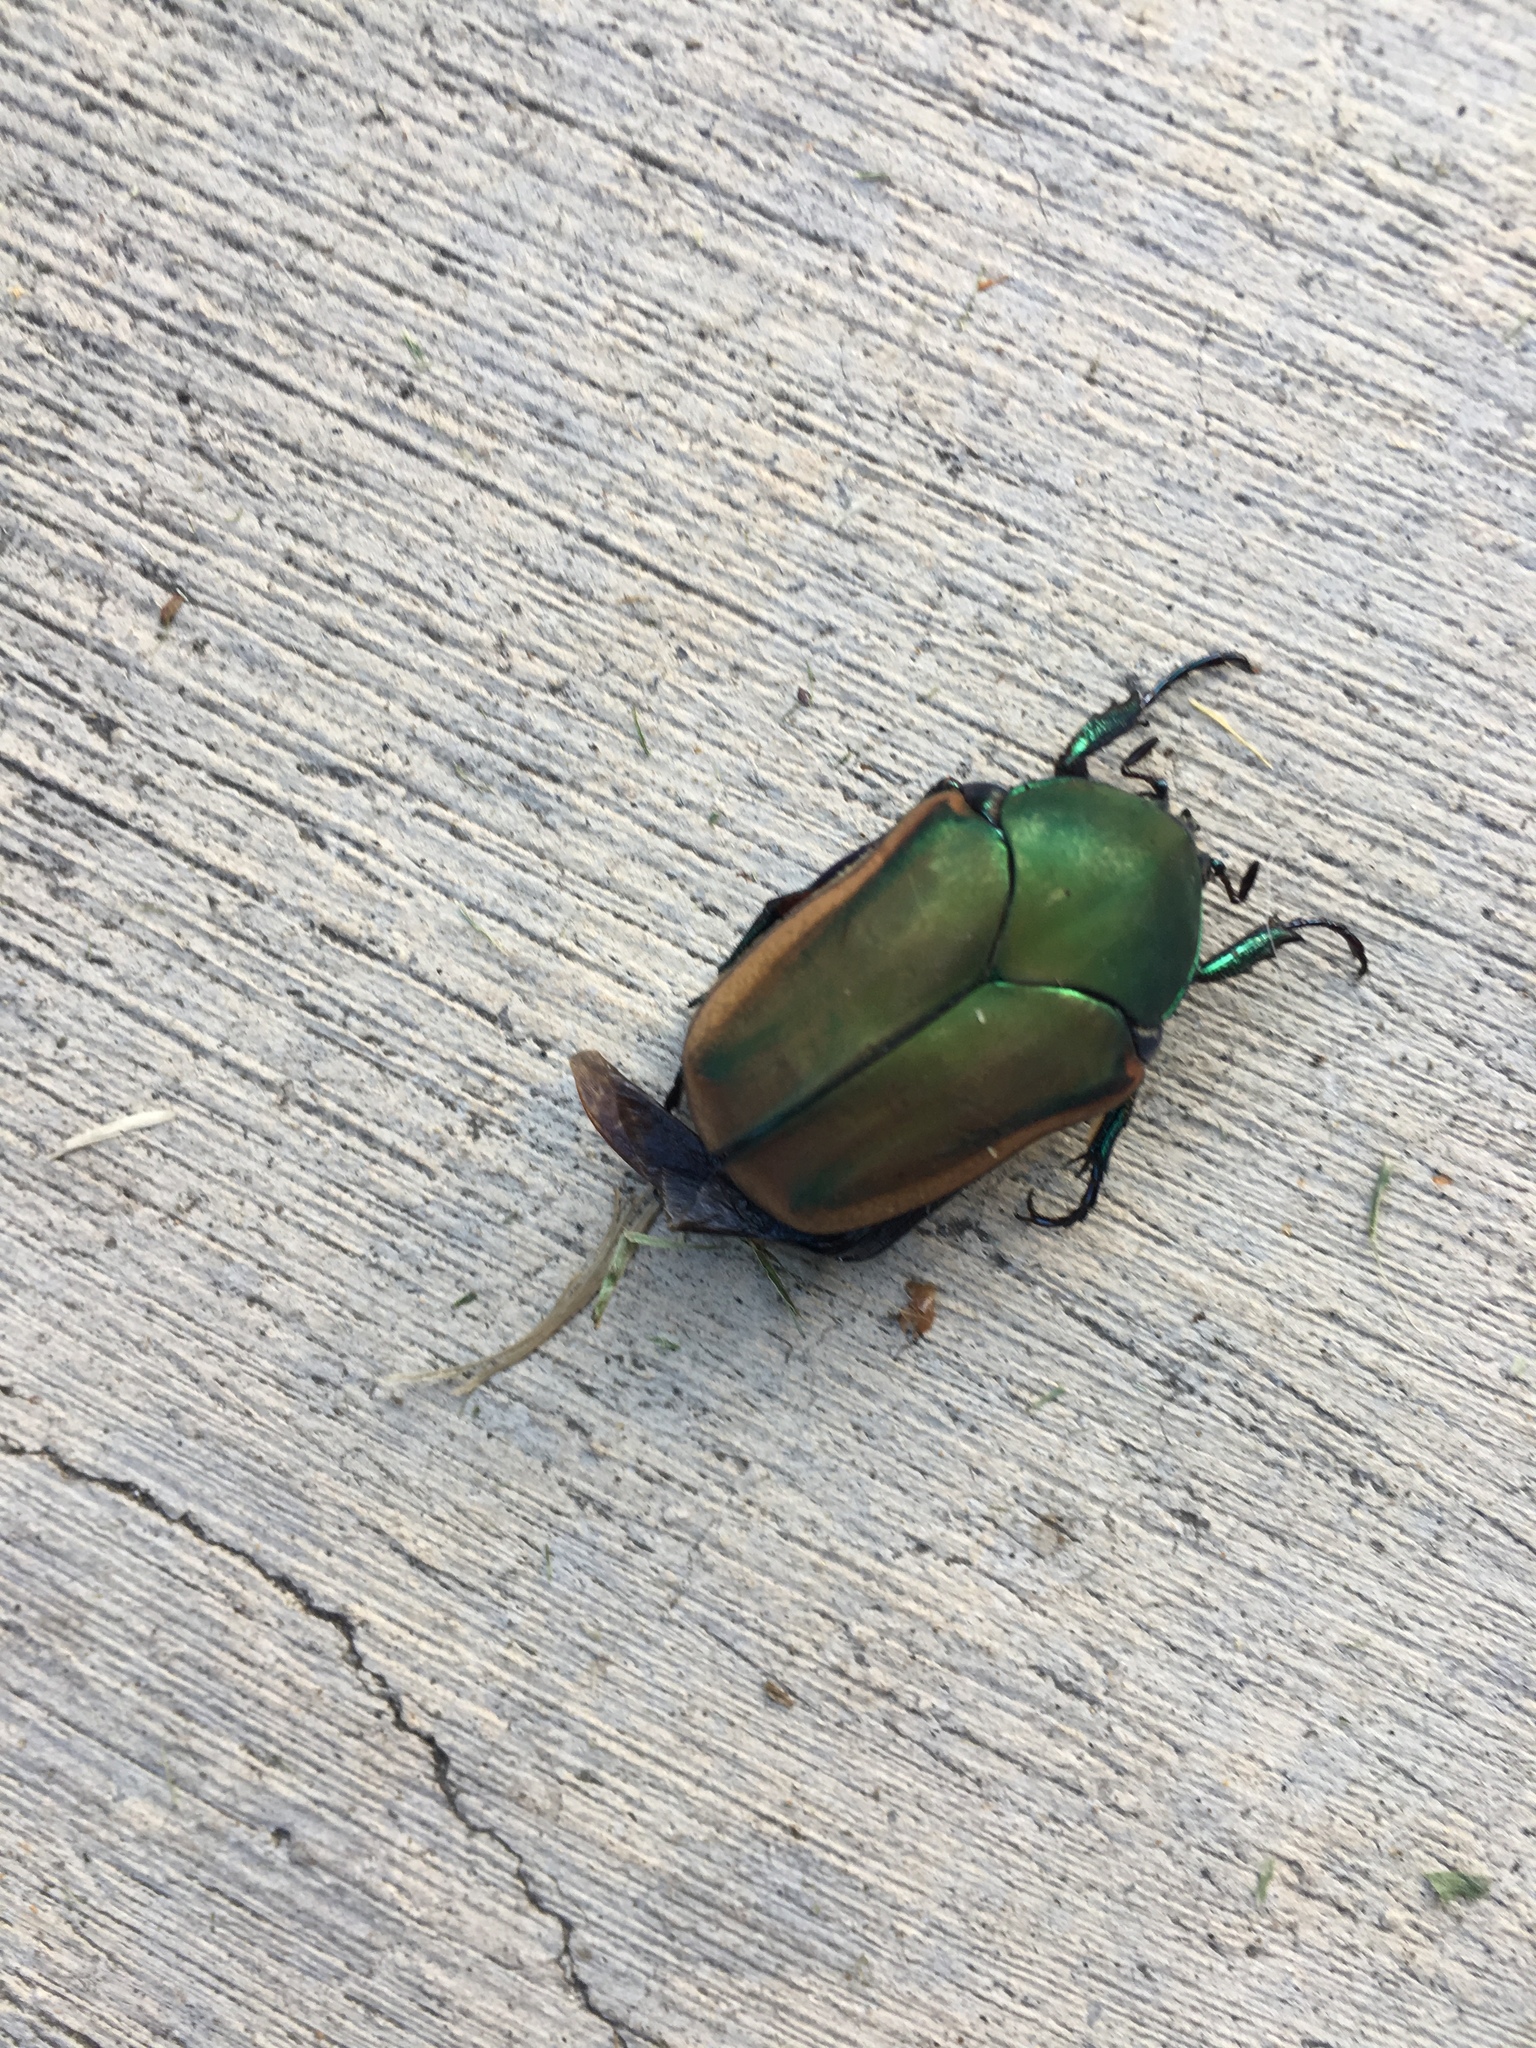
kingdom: Animalia
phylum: Arthropoda
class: Insecta
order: Coleoptera
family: Scarabaeidae
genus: Cotinis
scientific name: Cotinis mutabilis
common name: Figeater beetle
